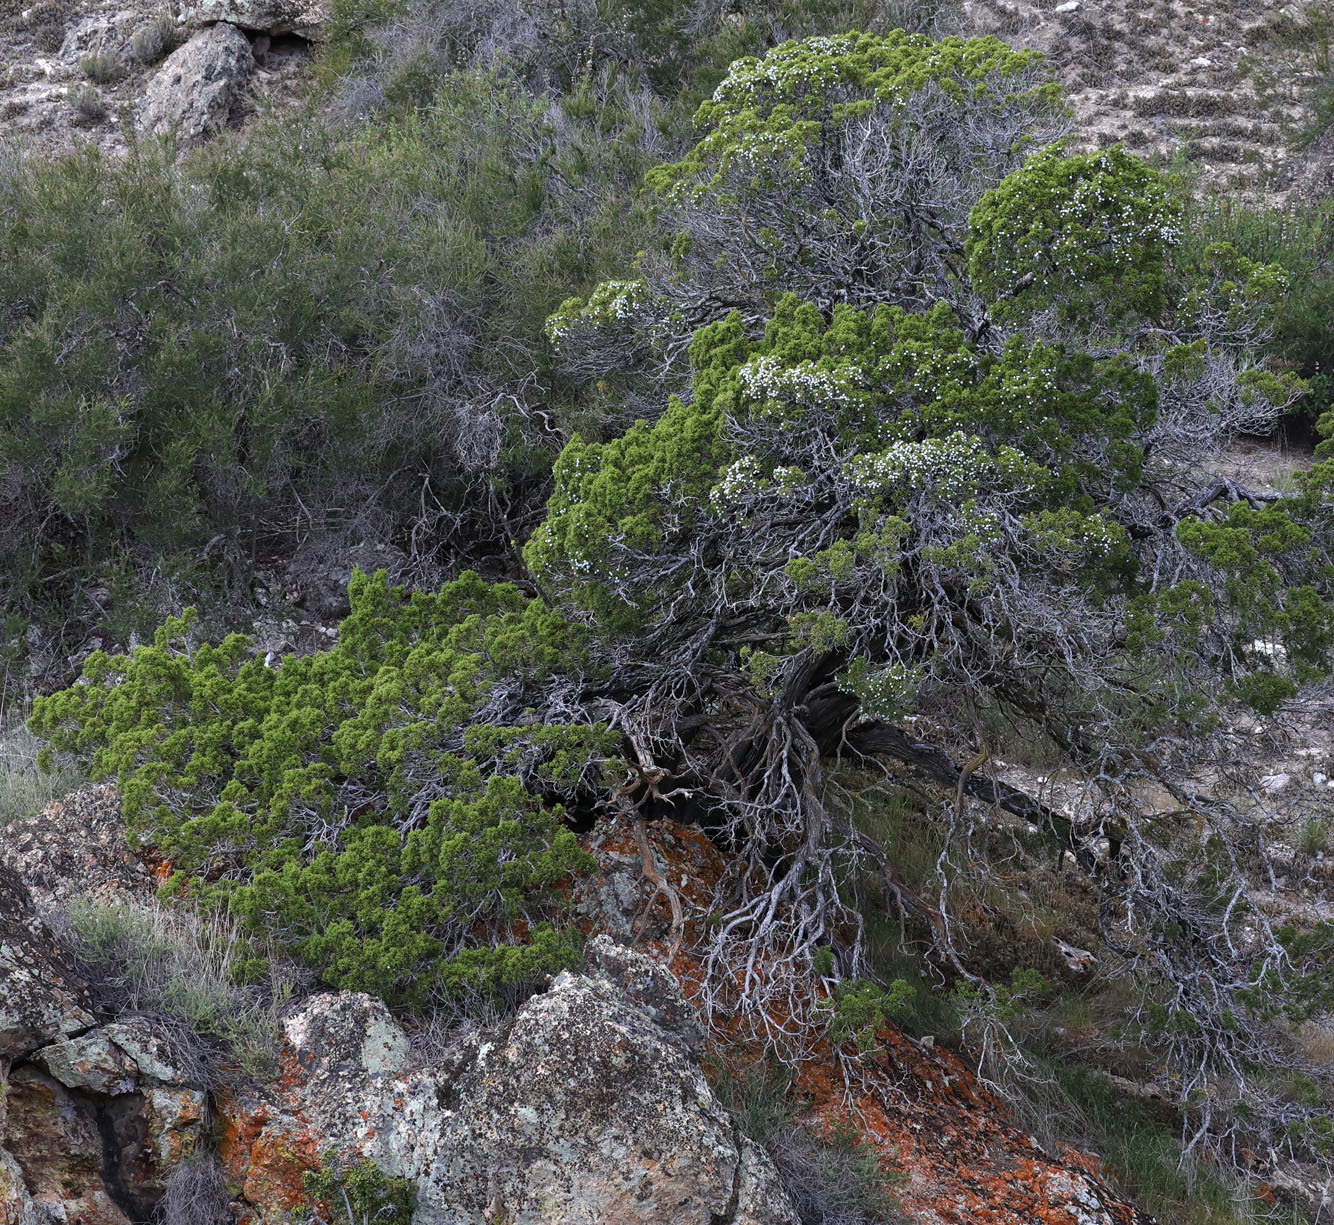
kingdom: Plantae
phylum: Tracheophyta
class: Pinopsida
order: Pinales
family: Cupressaceae
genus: Juniperus
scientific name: Juniperus californica
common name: California juniper
